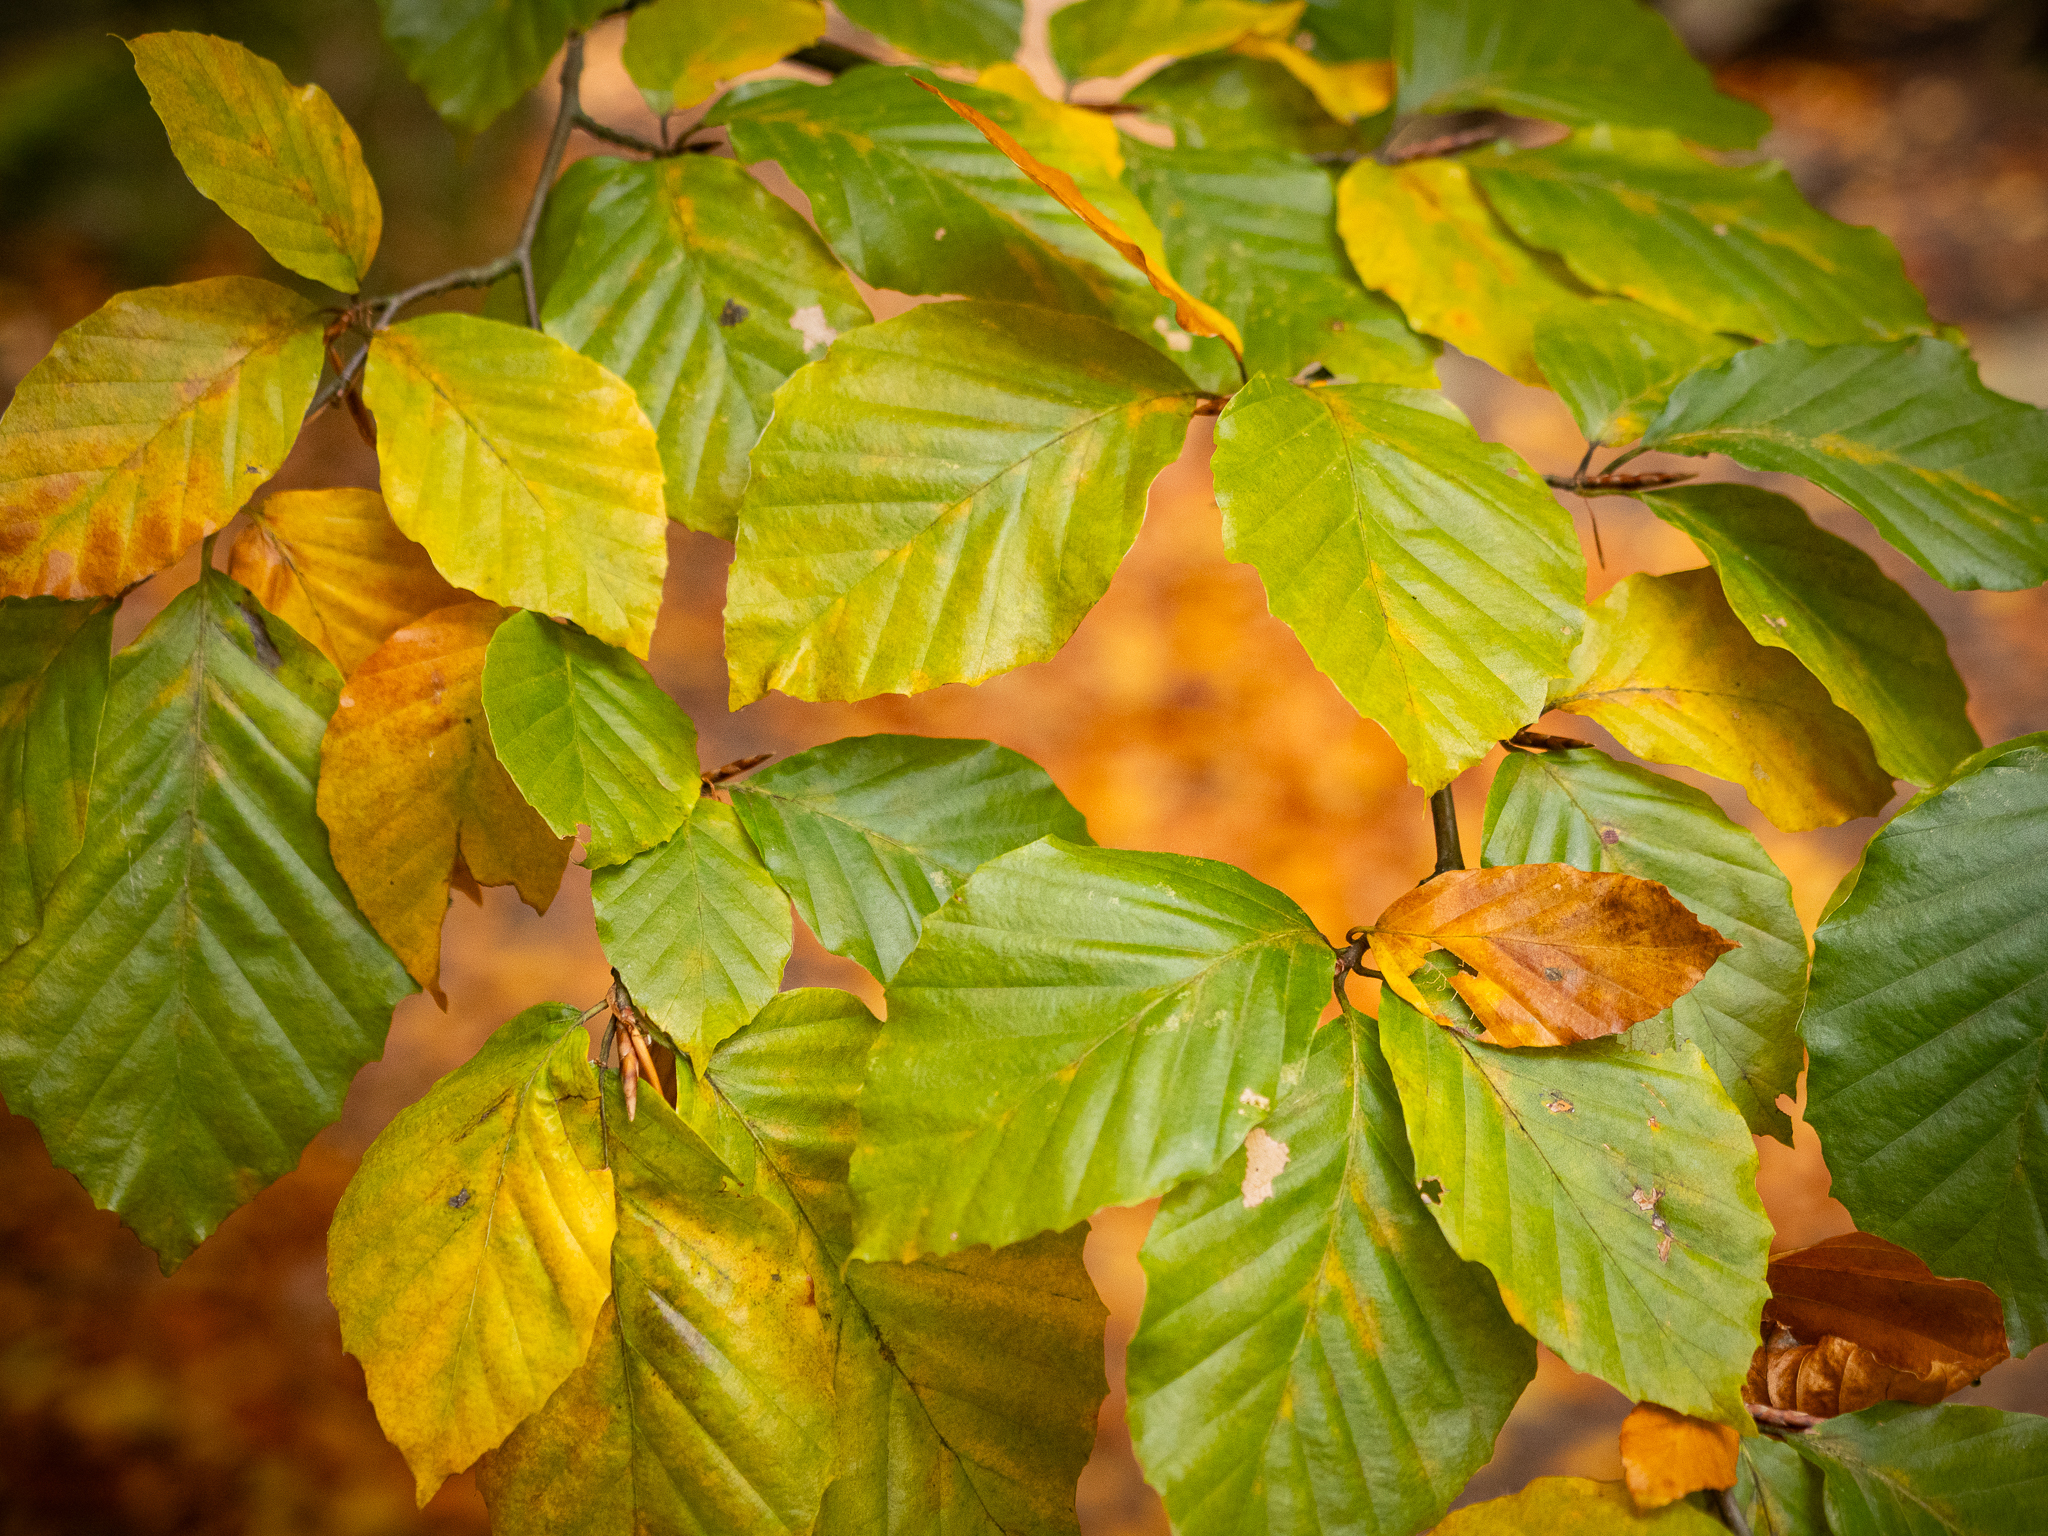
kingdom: Plantae
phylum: Tracheophyta
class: Magnoliopsida
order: Fagales
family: Fagaceae
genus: Fagus
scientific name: Fagus sylvatica
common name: Beech
